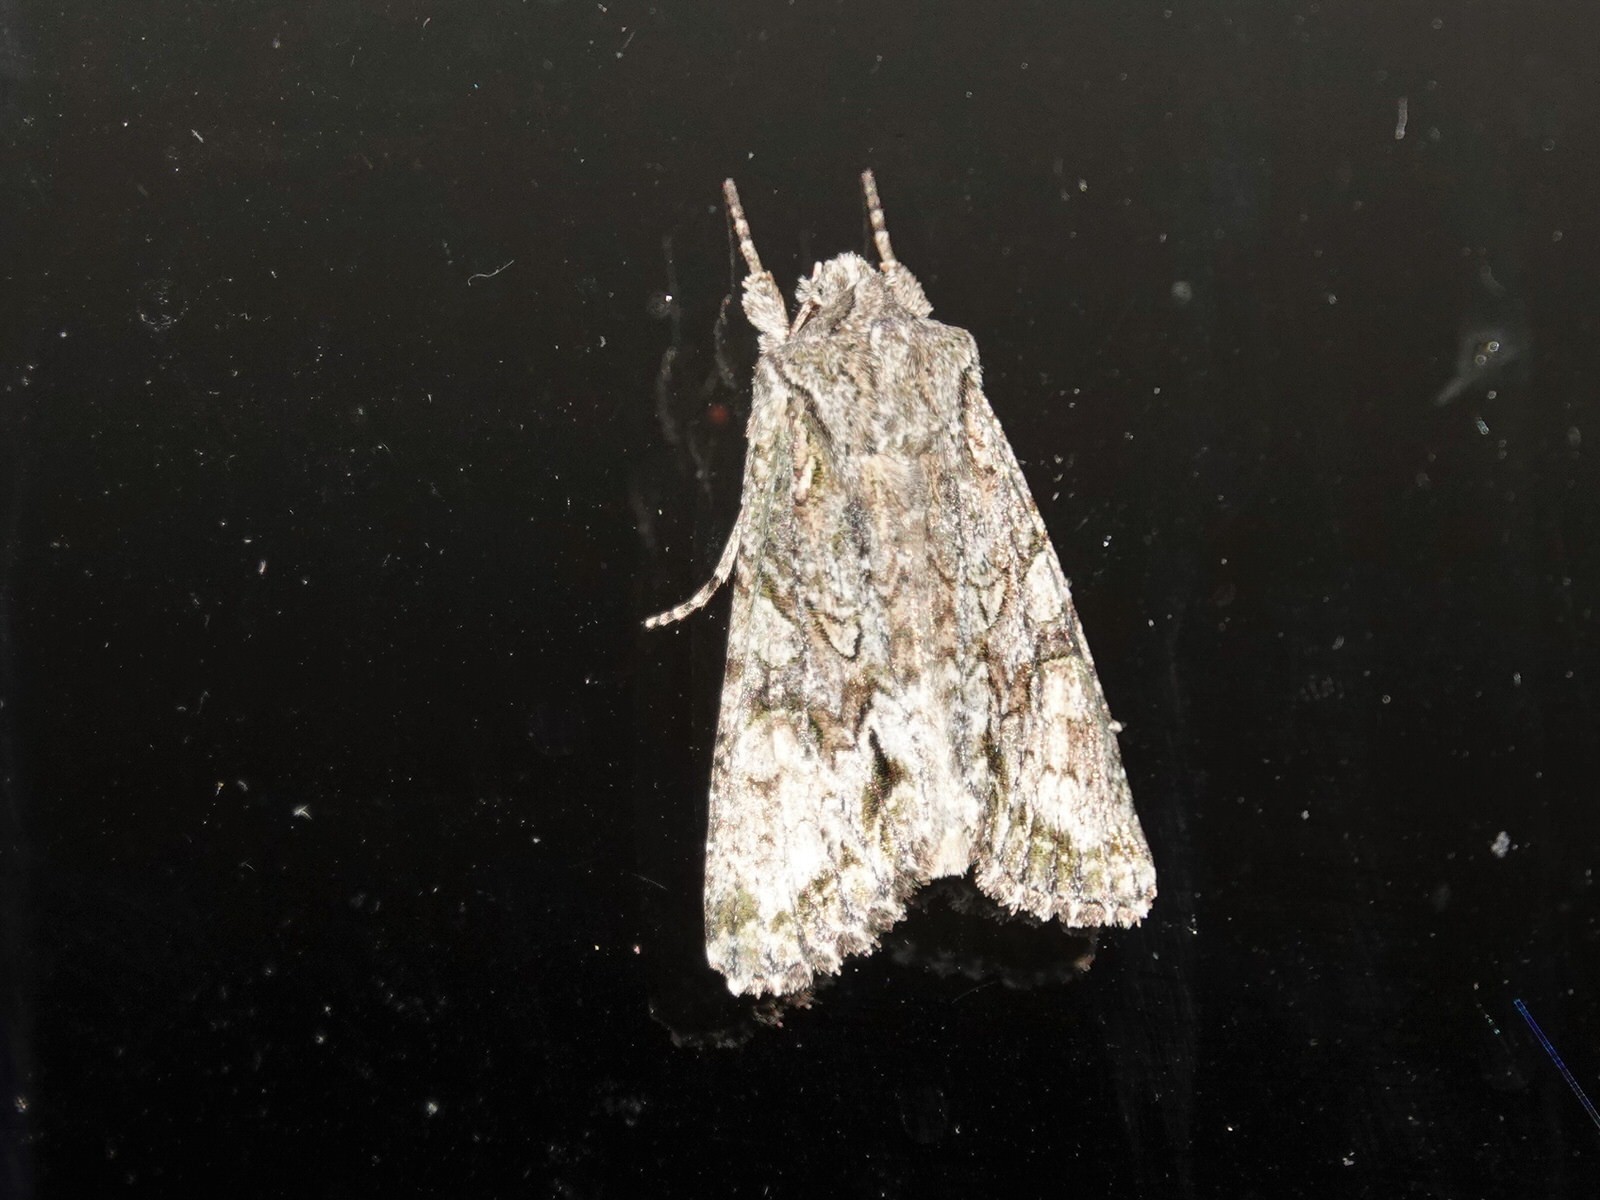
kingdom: Animalia
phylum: Arthropoda
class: Insecta
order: Lepidoptera
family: Noctuidae
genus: Ichneutica
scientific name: Ichneutica mutans
